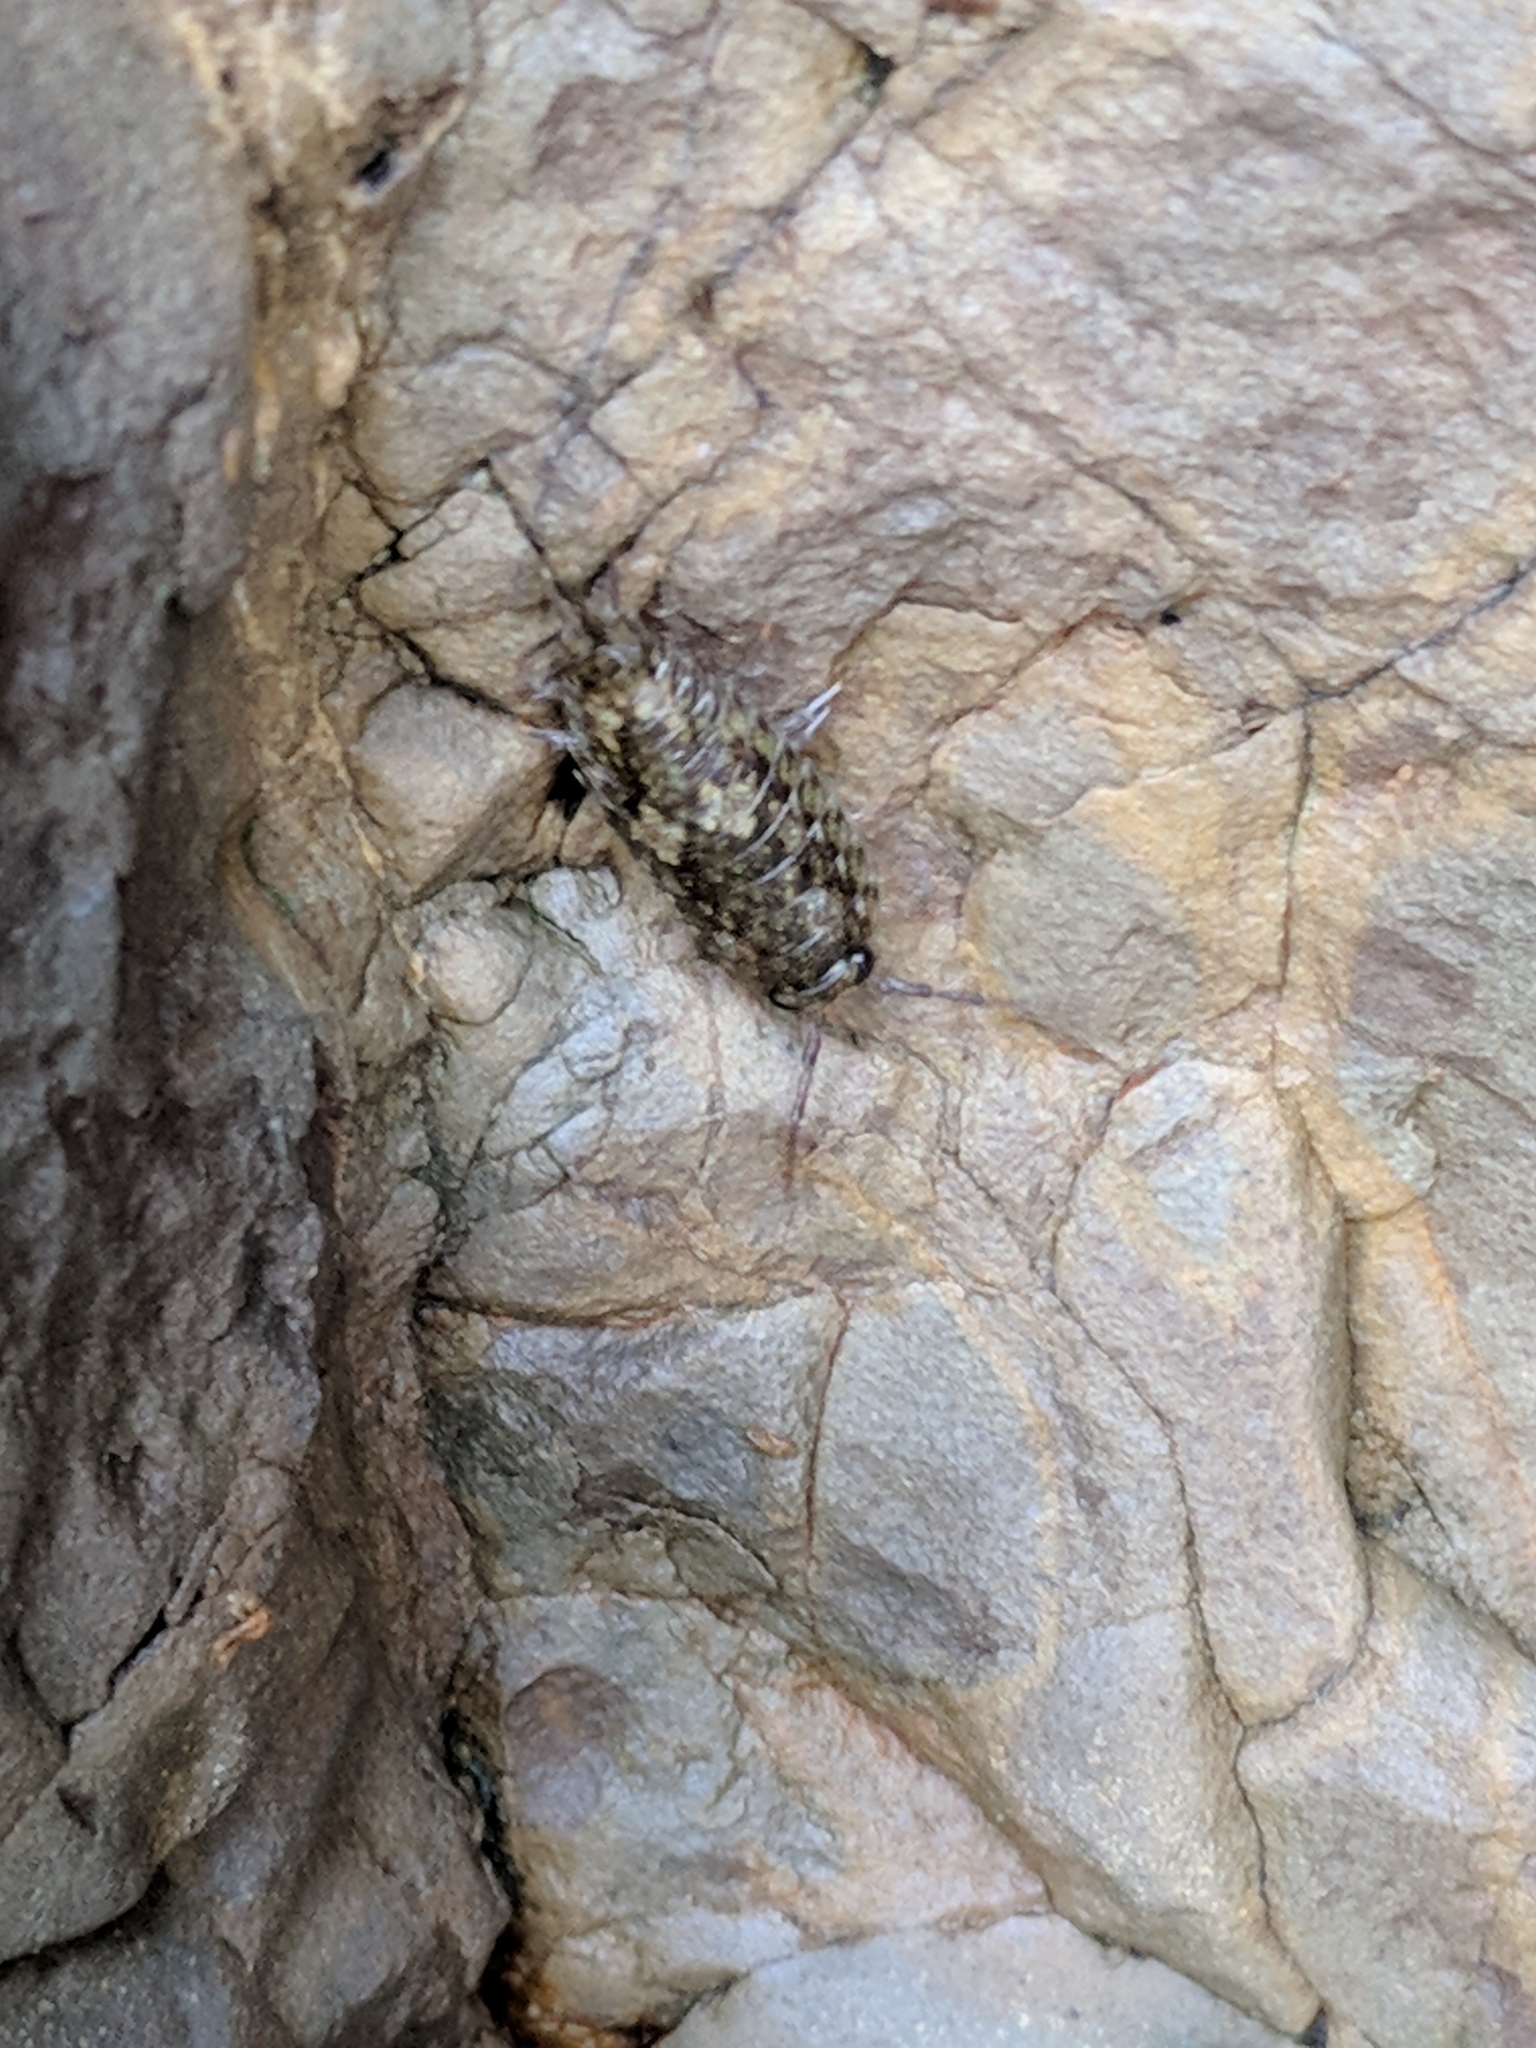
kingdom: Animalia
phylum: Arthropoda
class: Malacostraca
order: Isopoda
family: Ligiidae
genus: Ligia
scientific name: Ligia pallasii
